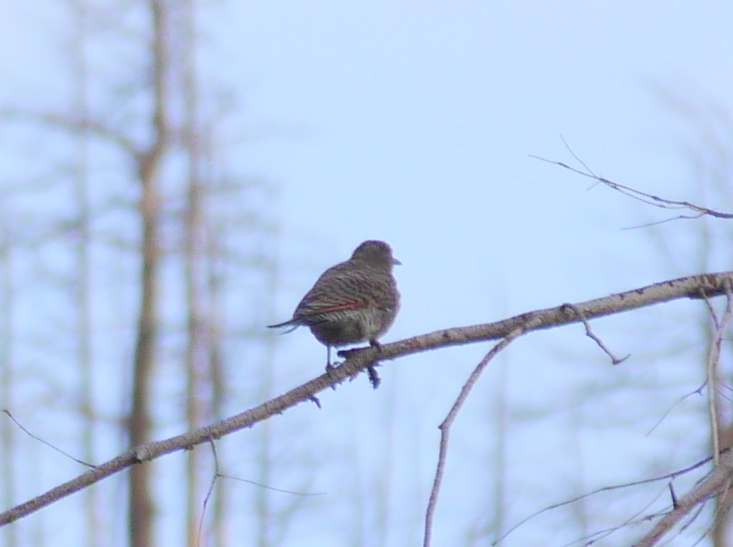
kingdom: Animalia
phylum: Chordata
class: Aves
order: Piciformes
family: Picidae
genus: Colaptes
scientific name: Colaptes auratus
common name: Northern flicker
